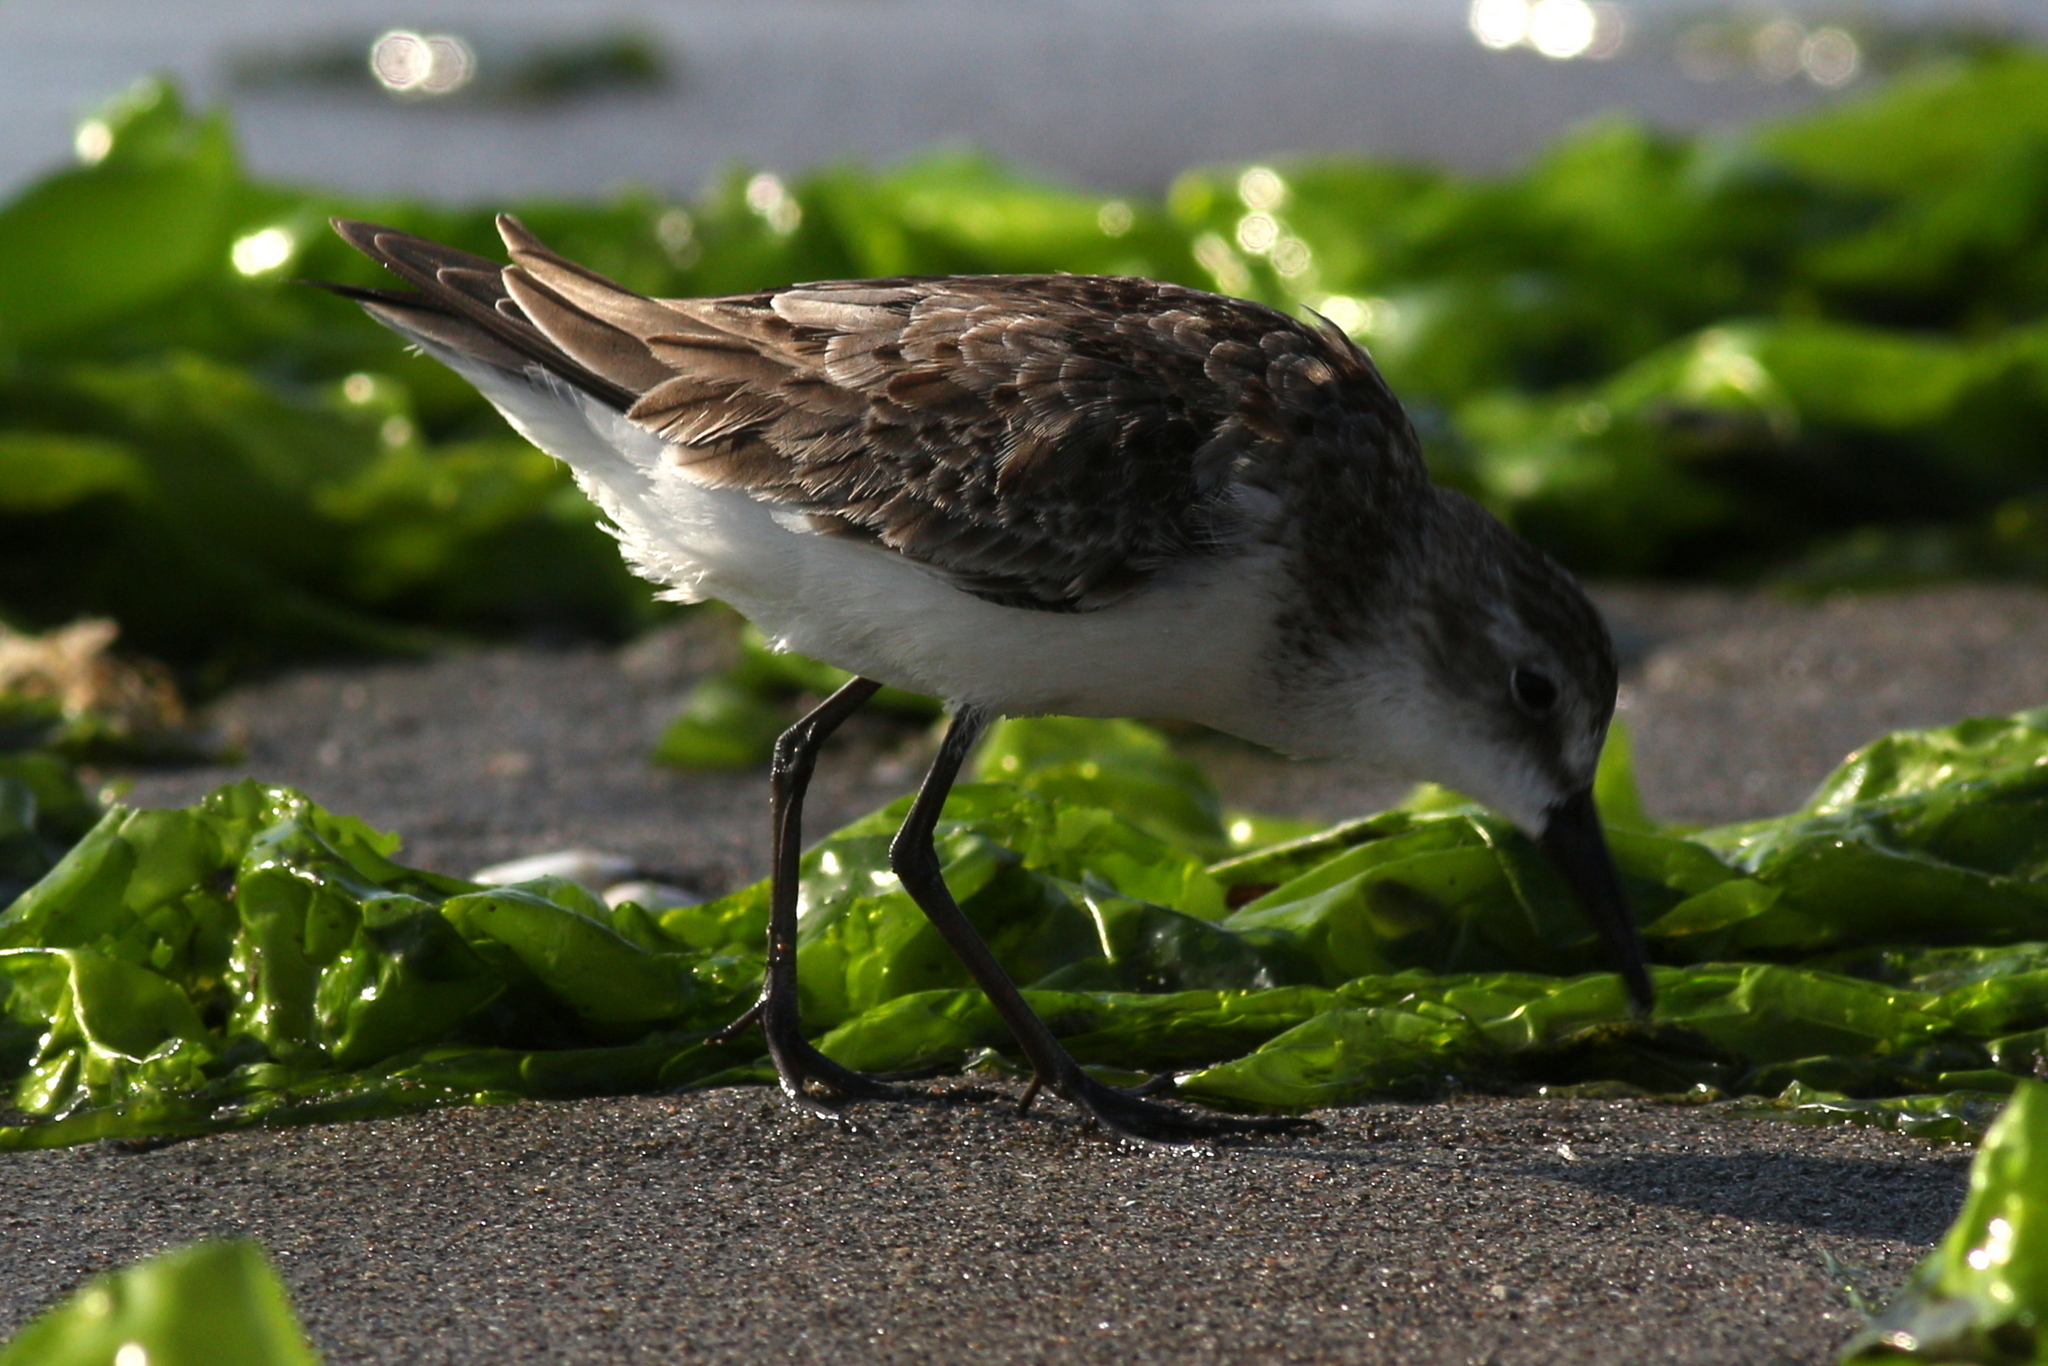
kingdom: Animalia
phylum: Chordata
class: Aves
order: Charadriiformes
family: Scolopacidae
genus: Calidris
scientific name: Calidris pusilla
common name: Semipalmated sandpiper
